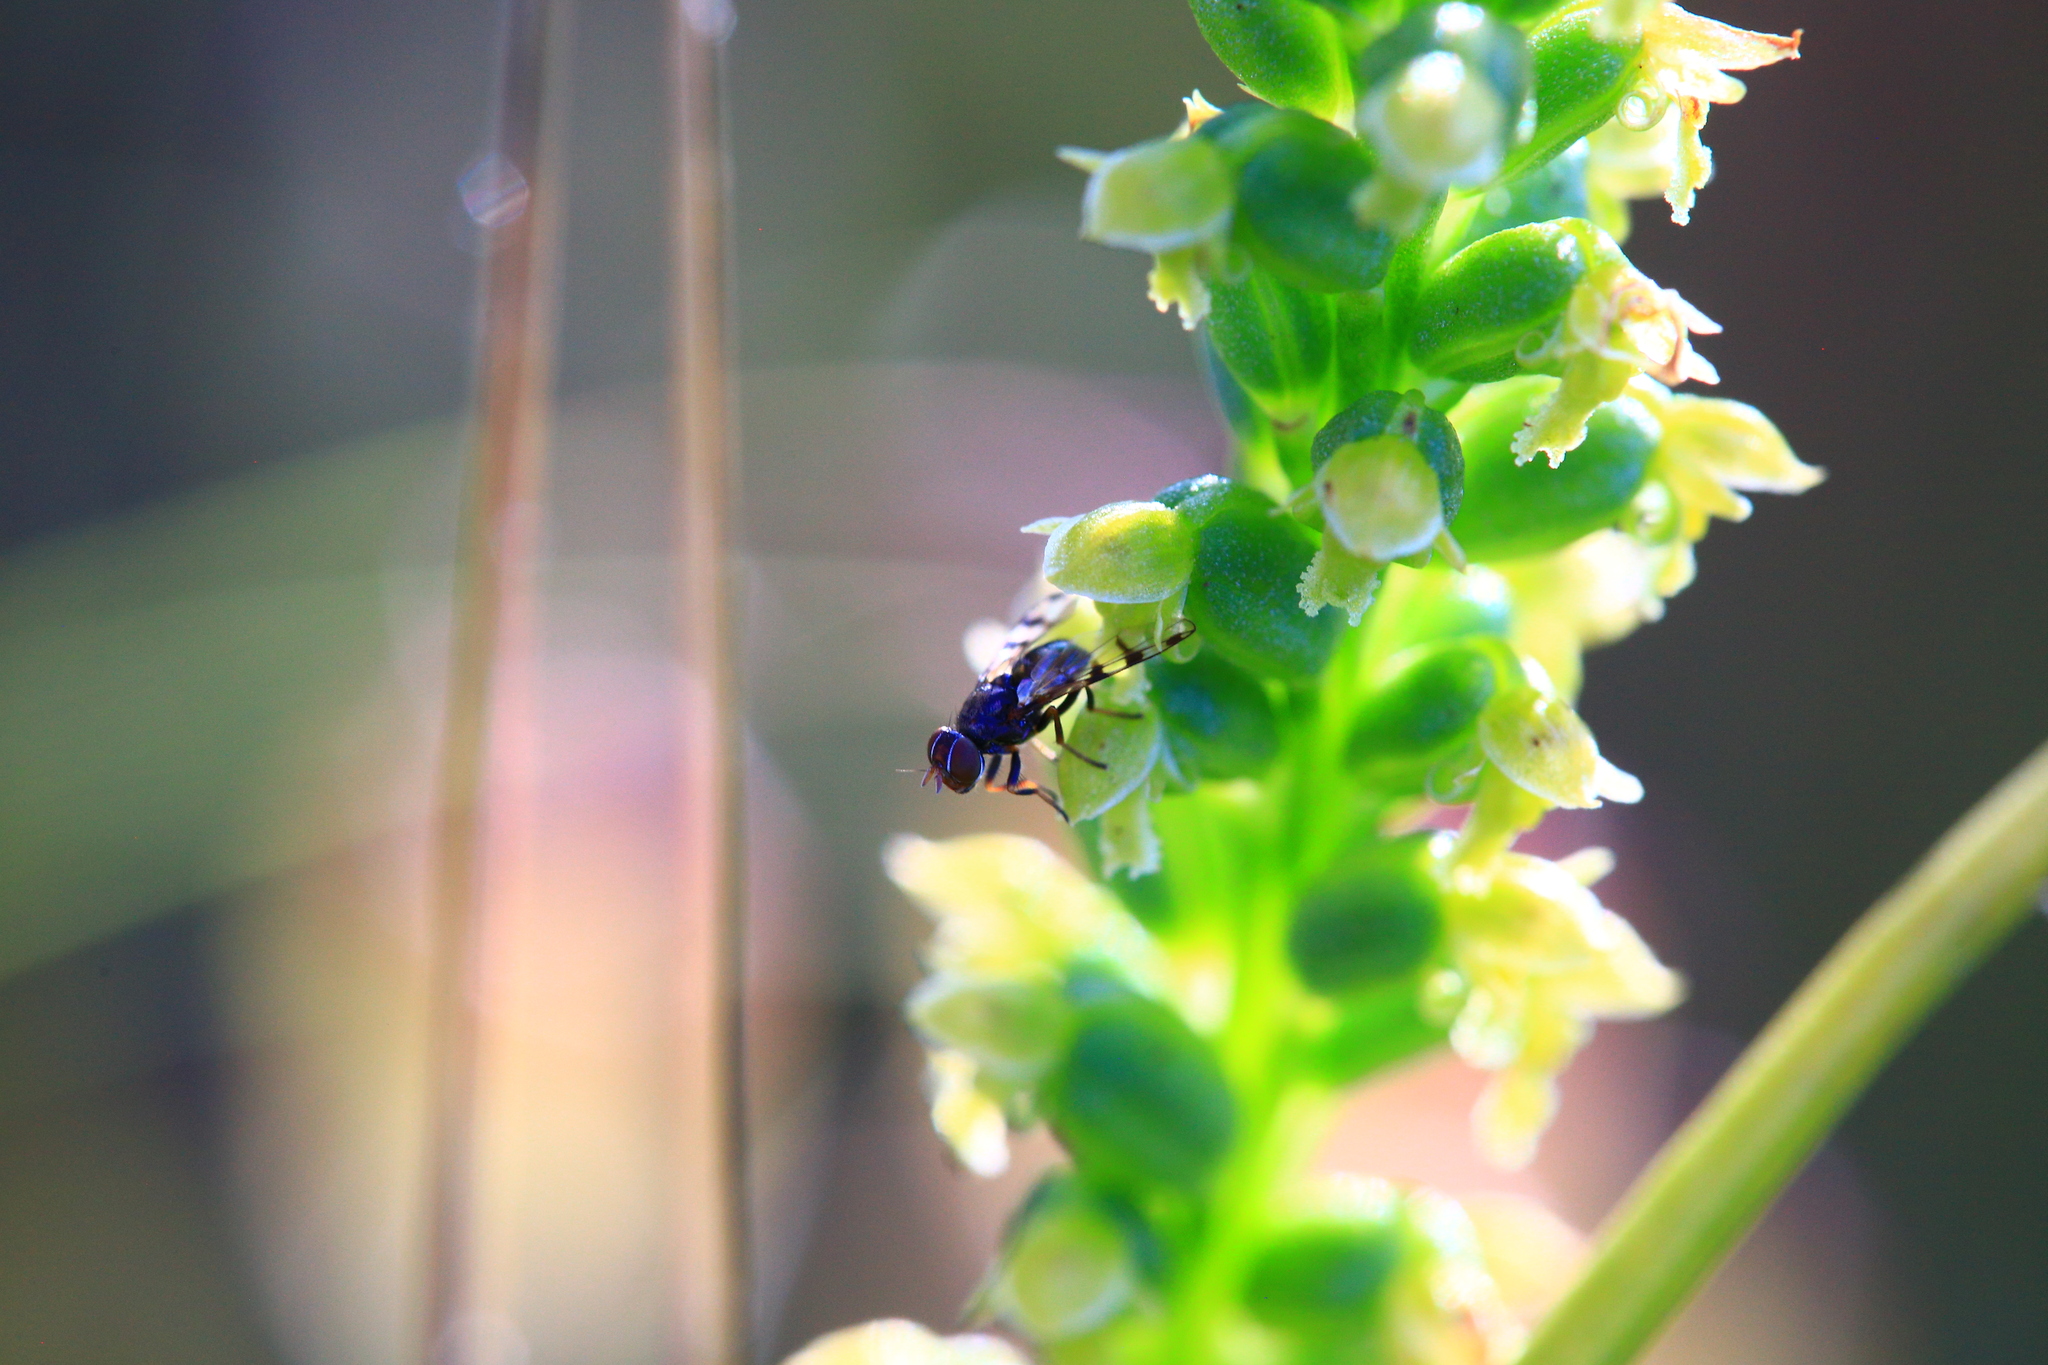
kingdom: Plantae
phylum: Tracheophyta
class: Liliopsida
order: Asparagales
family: Orchidaceae
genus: Microtis
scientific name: Microtis media
